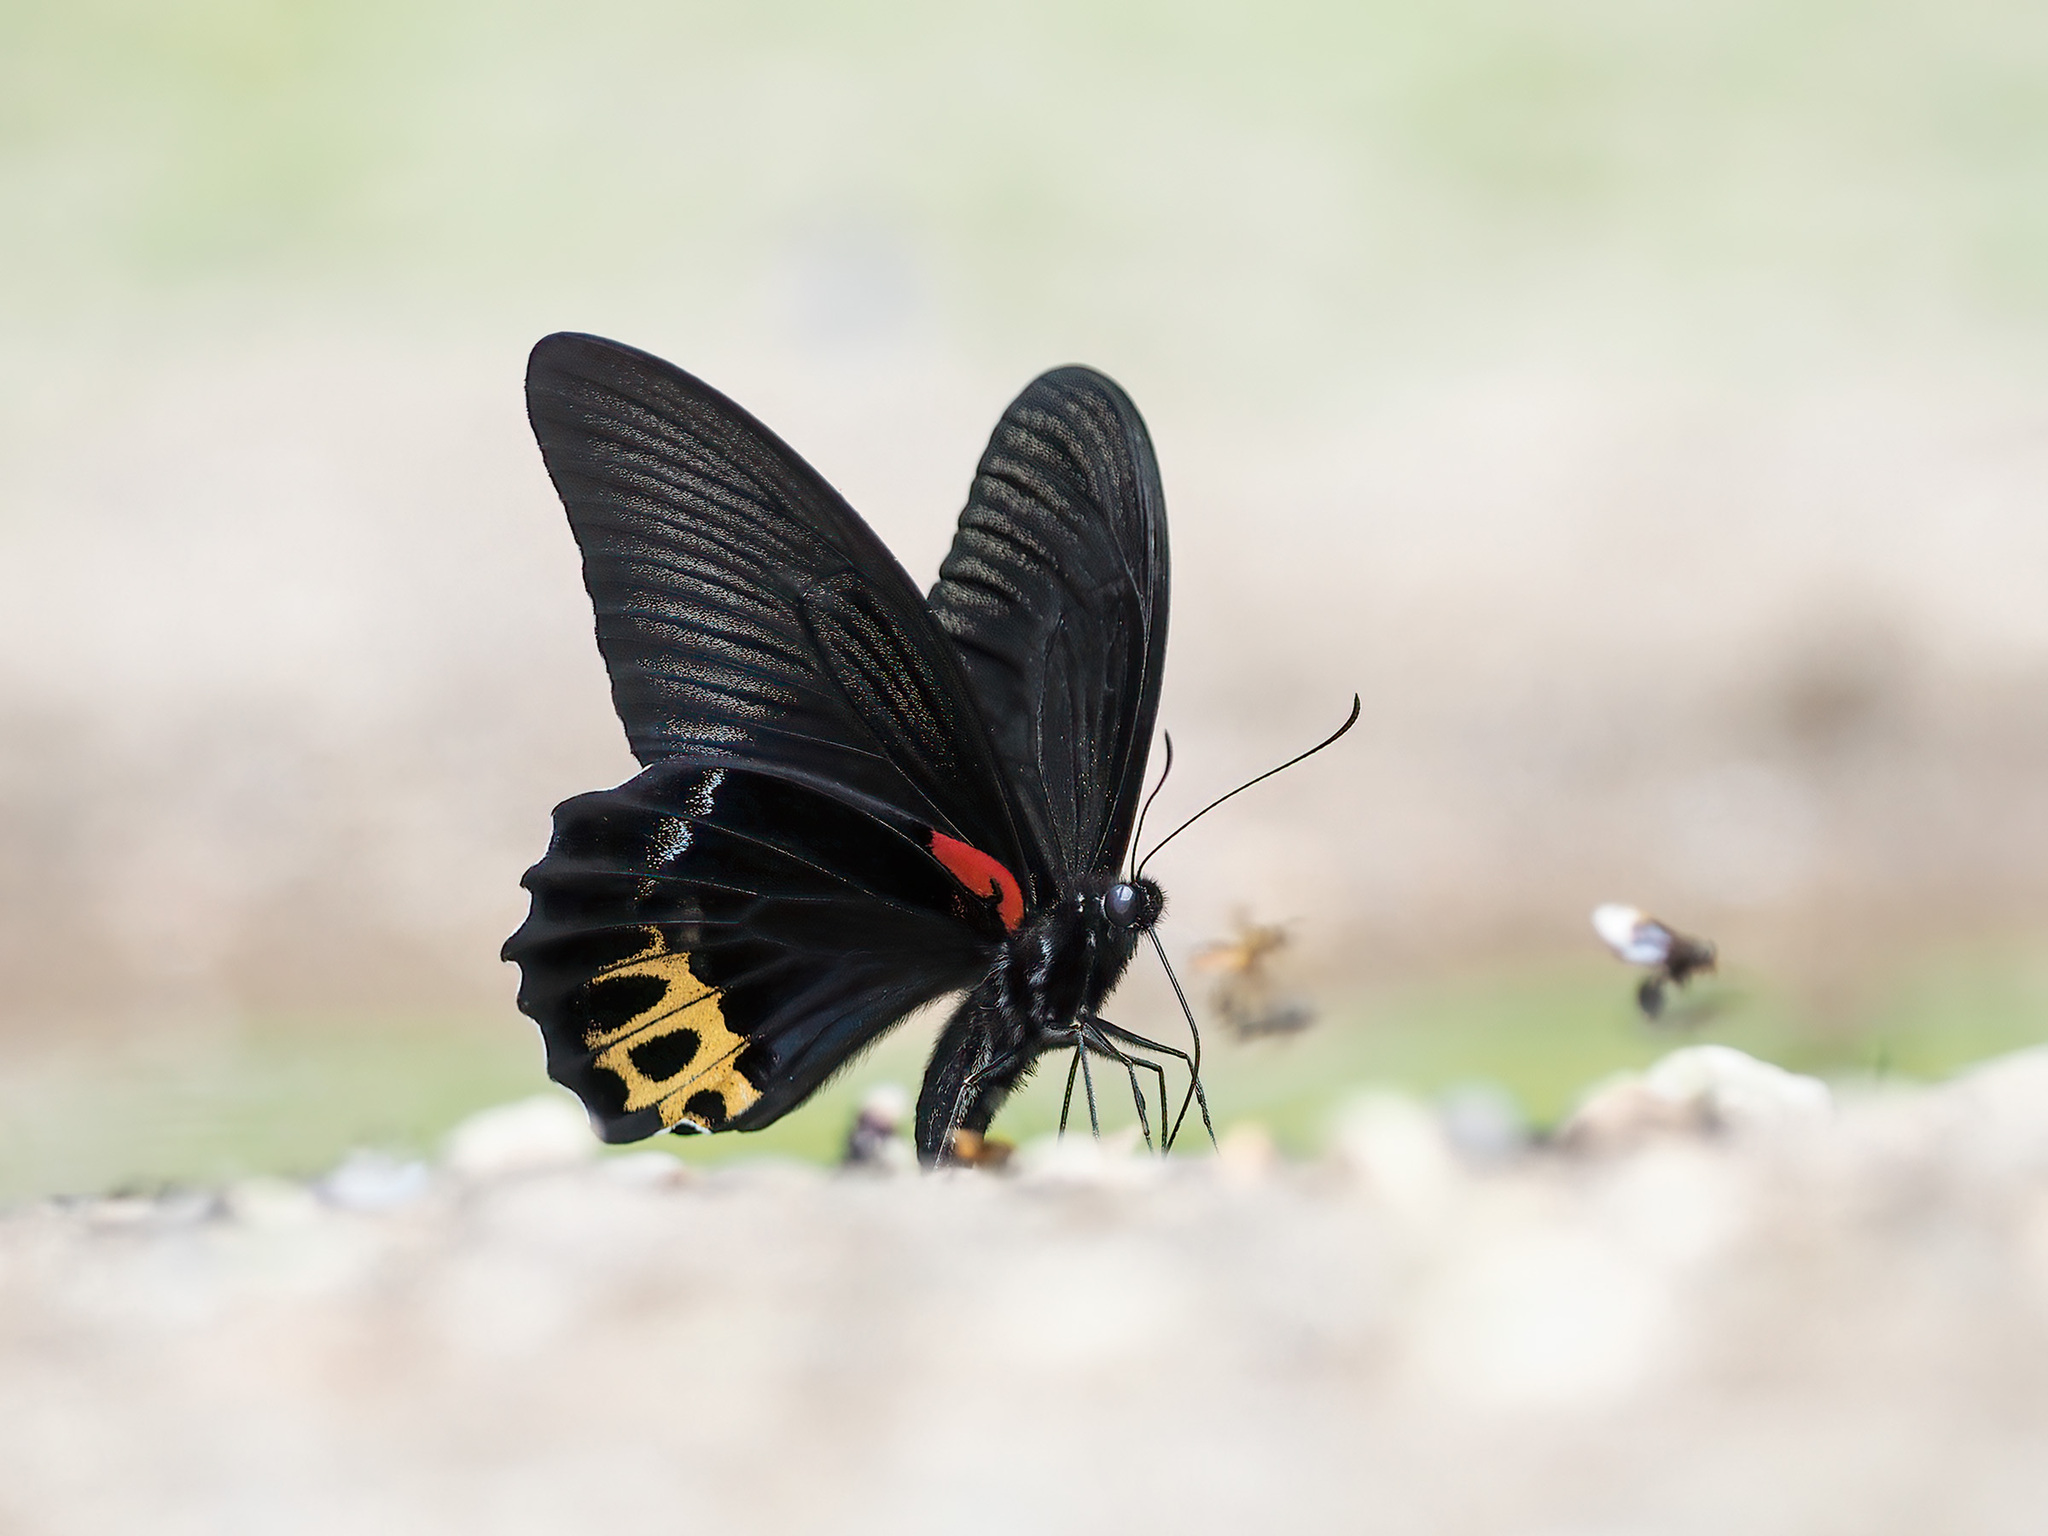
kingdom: Animalia
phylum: Arthropoda
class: Insecta
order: Lepidoptera
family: Papilionidae
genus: Papilio
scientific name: Papilio acheron
